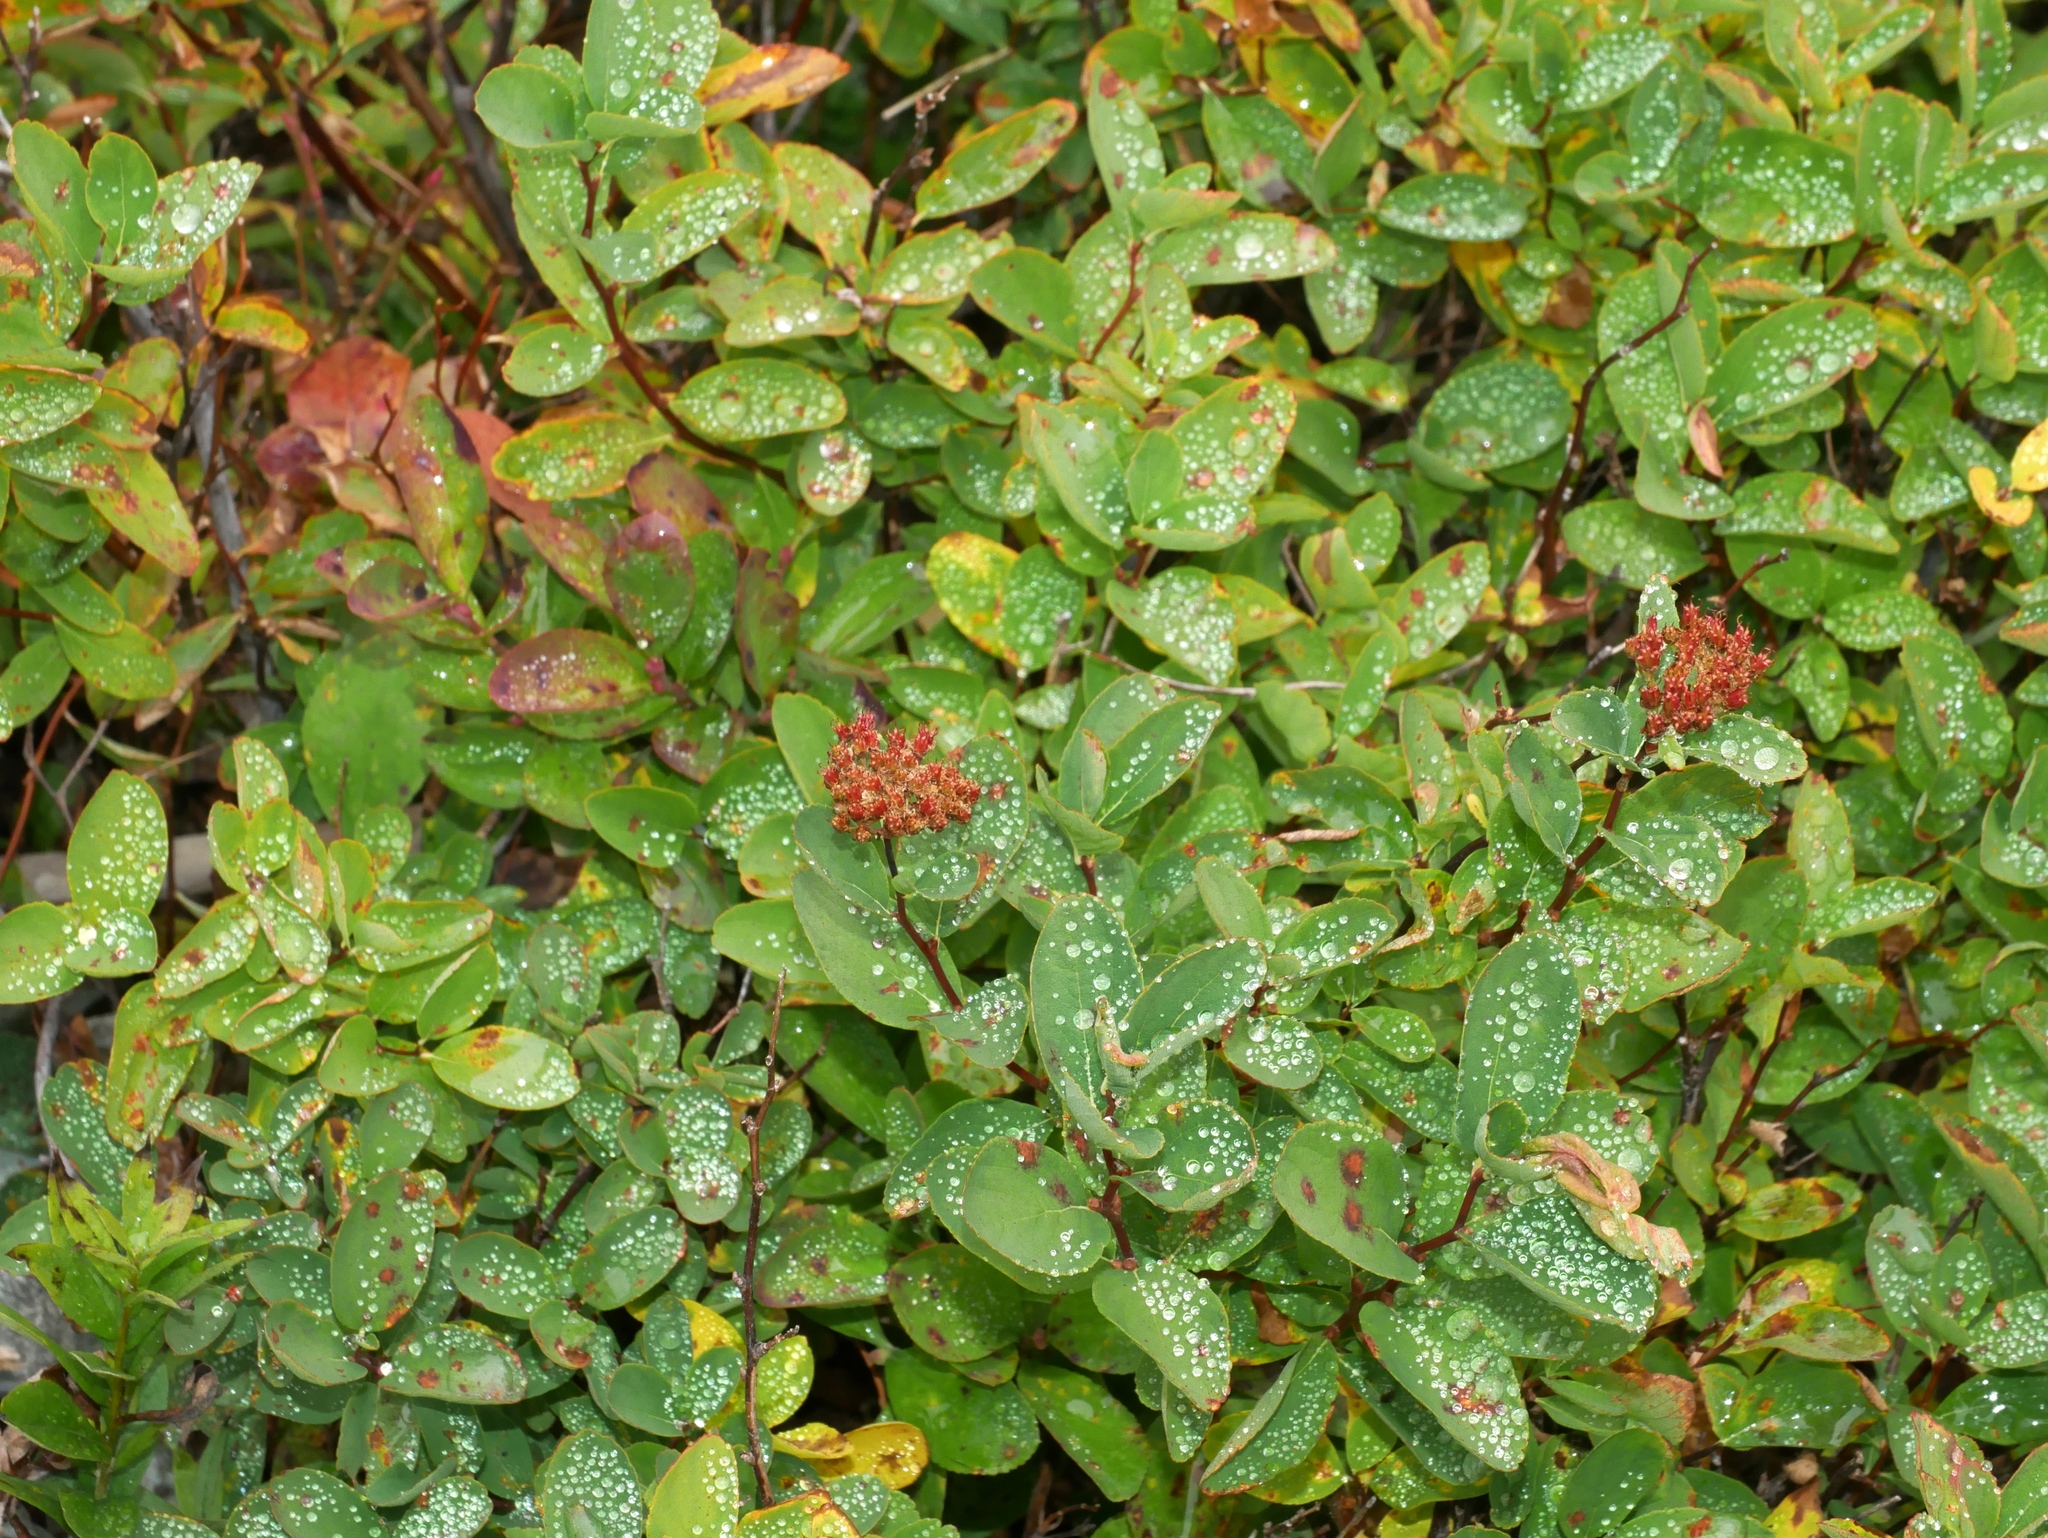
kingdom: Plantae
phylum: Tracheophyta
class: Magnoliopsida
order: Rosales
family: Rosaceae
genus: Spiraea
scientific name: Spiraea splendens
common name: Subalpine meadowsweet
